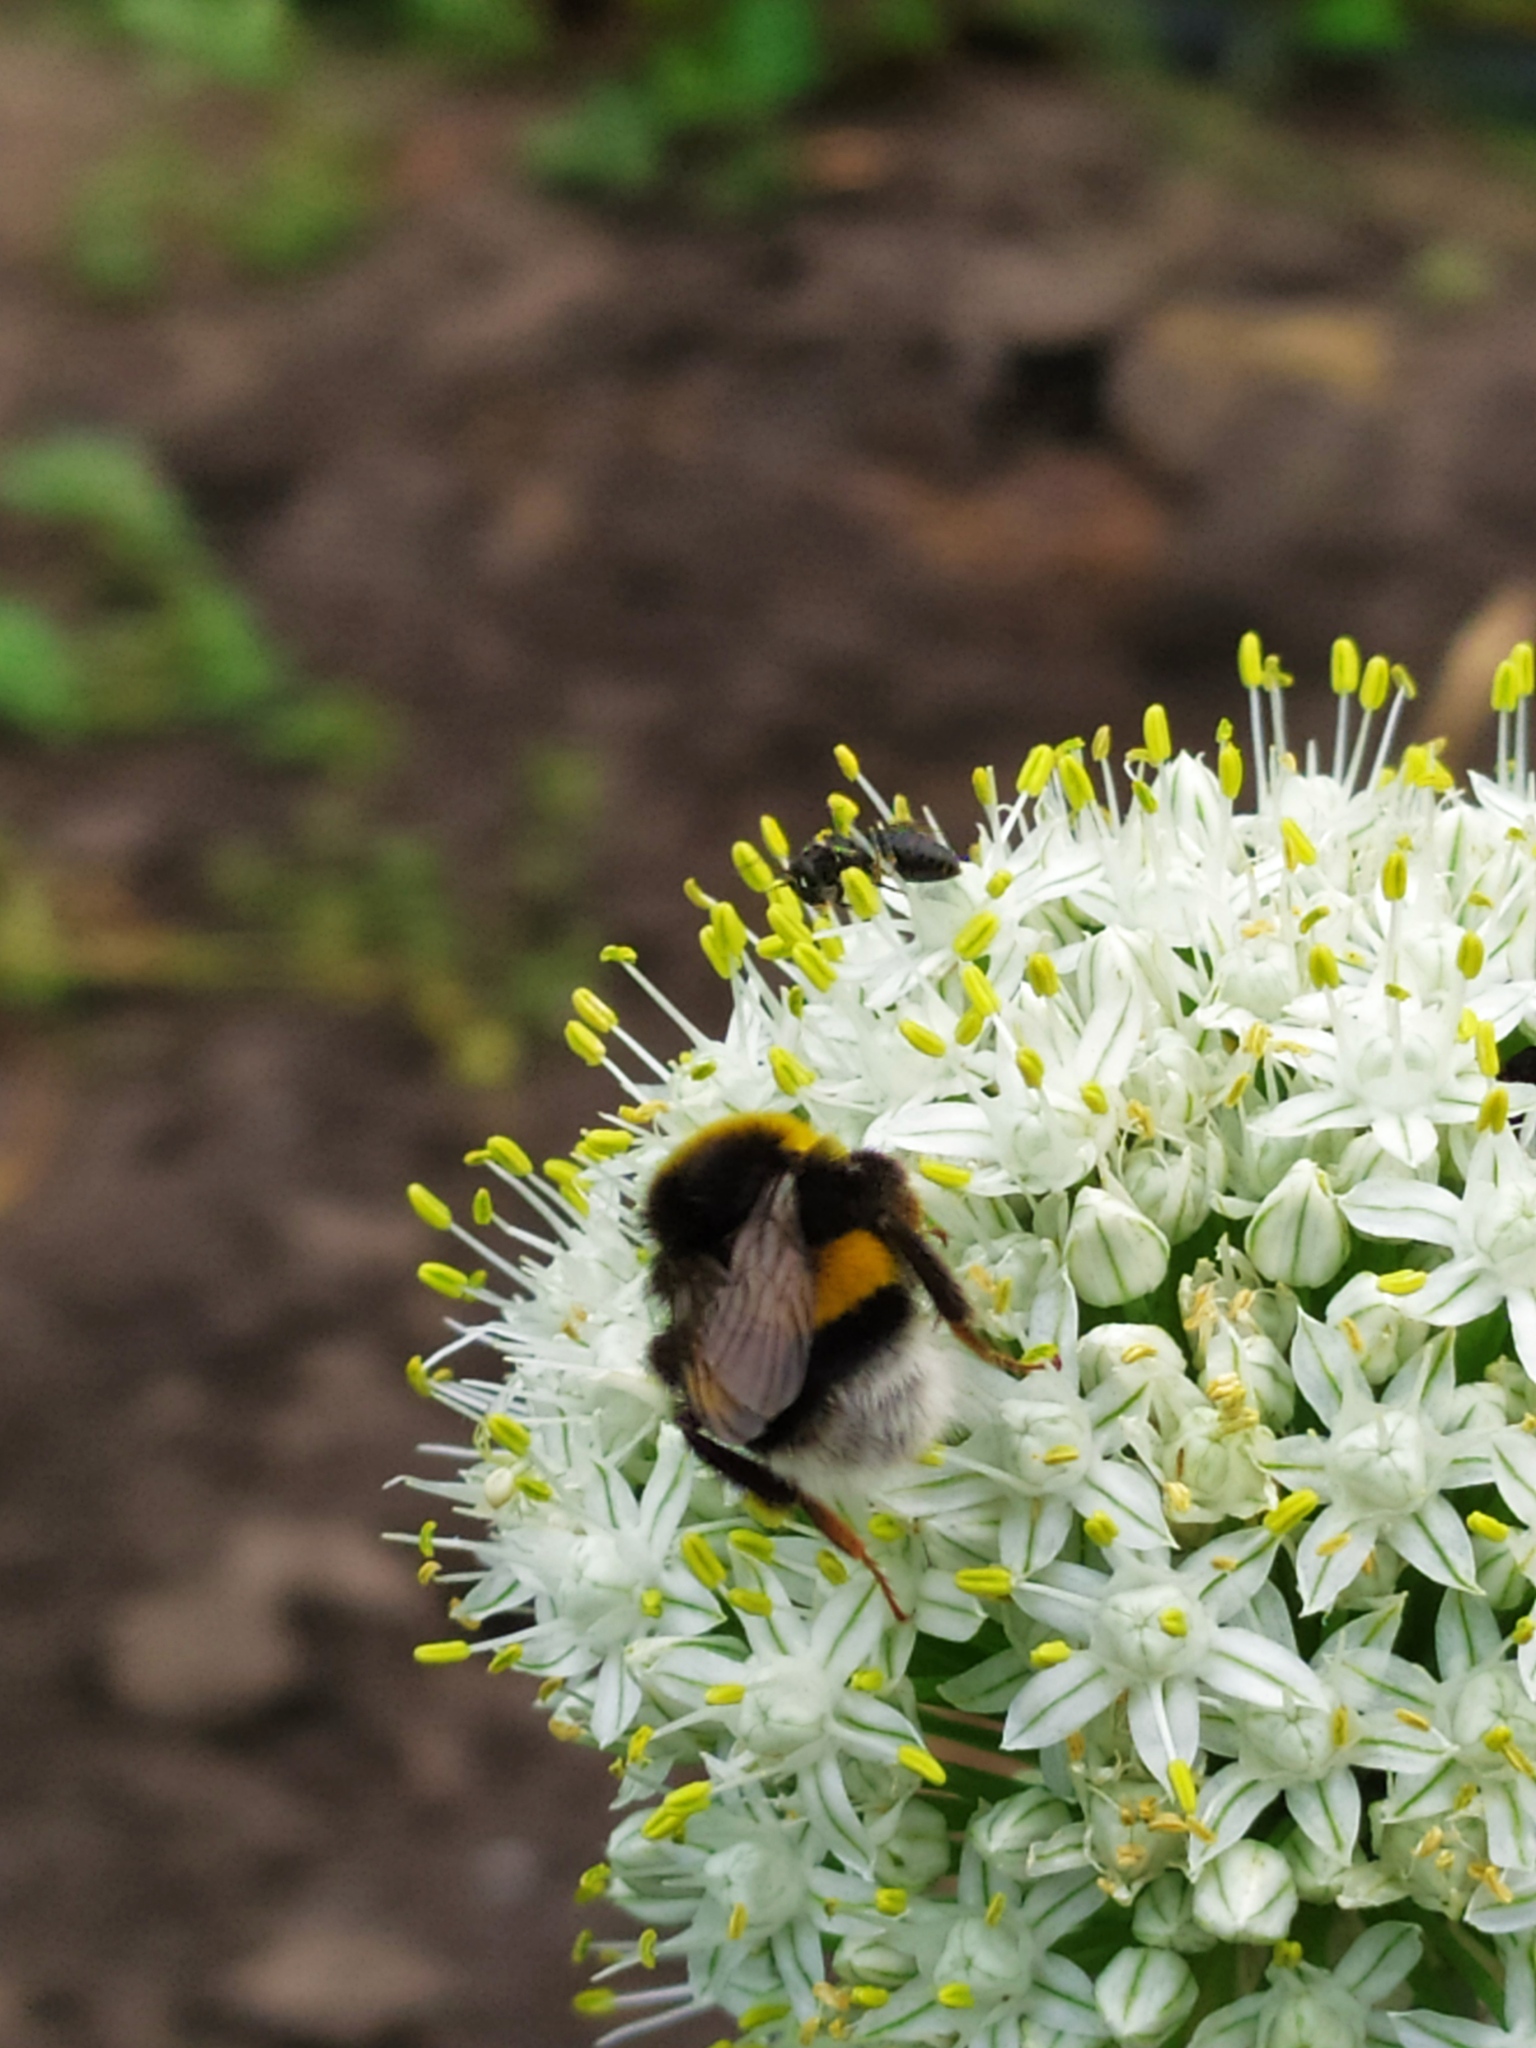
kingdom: Animalia
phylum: Arthropoda
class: Insecta
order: Hymenoptera
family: Apidae
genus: Bombus
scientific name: Bombus
